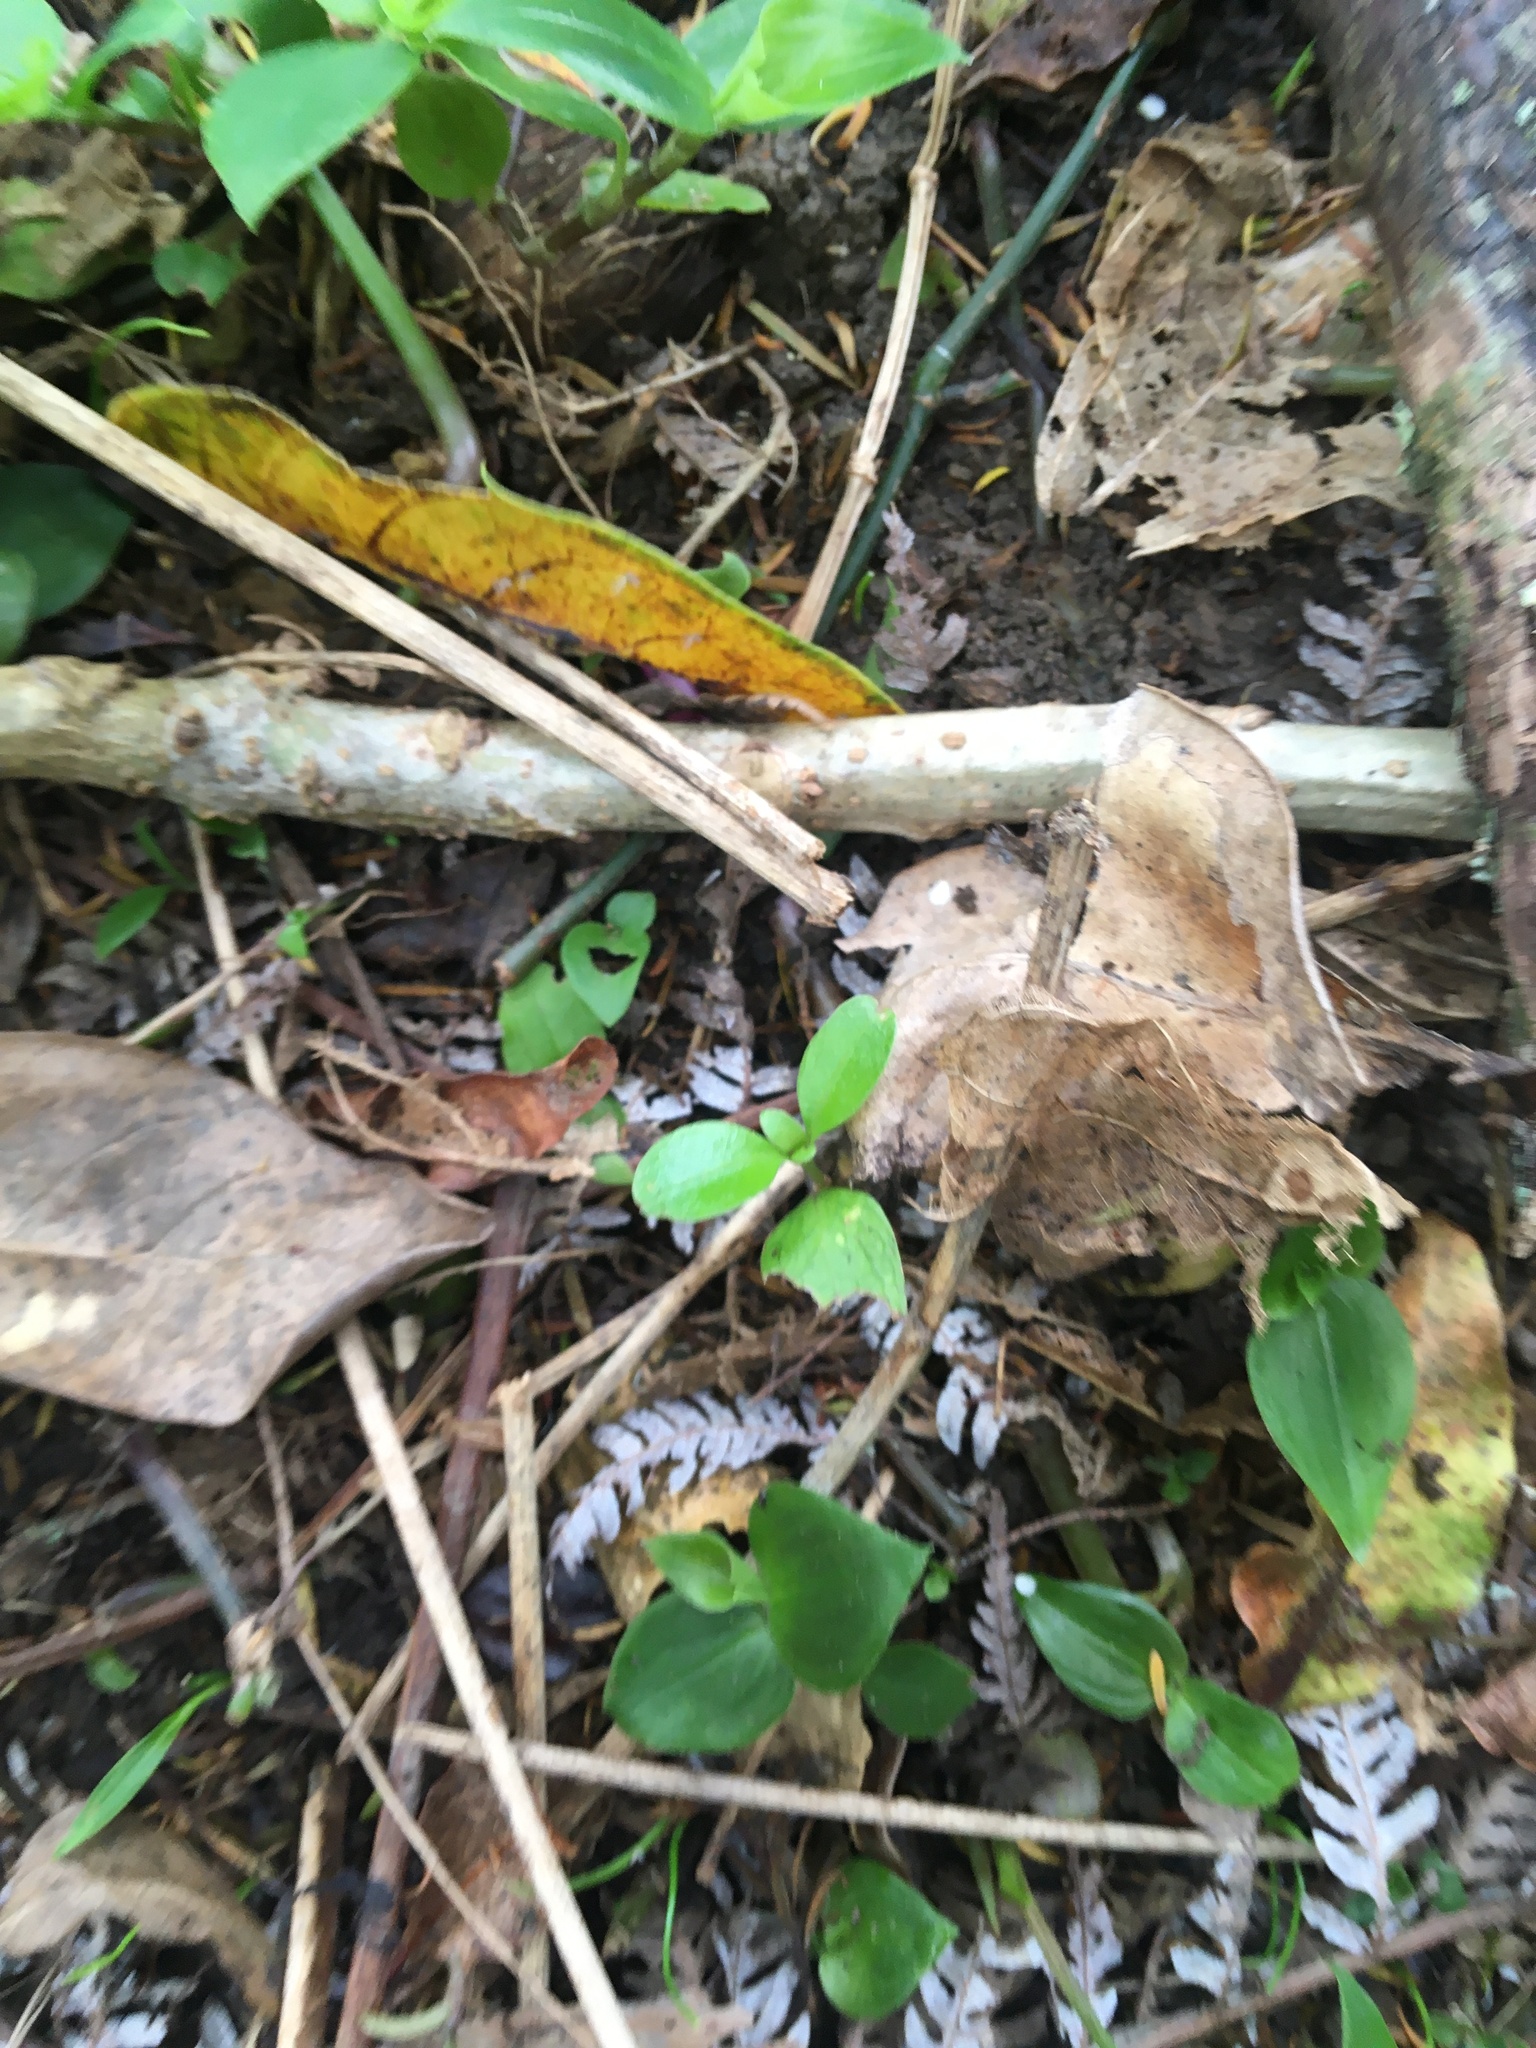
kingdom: Plantae
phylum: Tracheophyta
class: Magnoliopsida
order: Gentianales
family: Rubiaceae
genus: Coprosma
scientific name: Coprosma robusta
